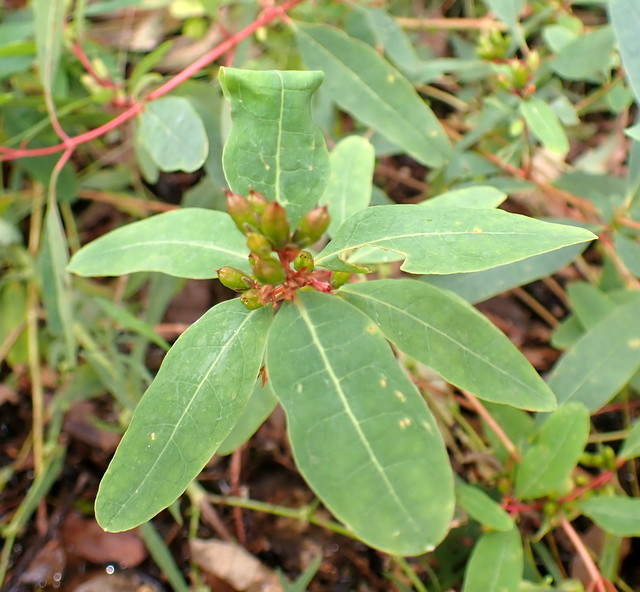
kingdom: Plantae
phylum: Tracheophyta
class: Magnoliopsida
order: Malpighiales
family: Hypericaceae
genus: Triadenum
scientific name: Triadenum walteri
